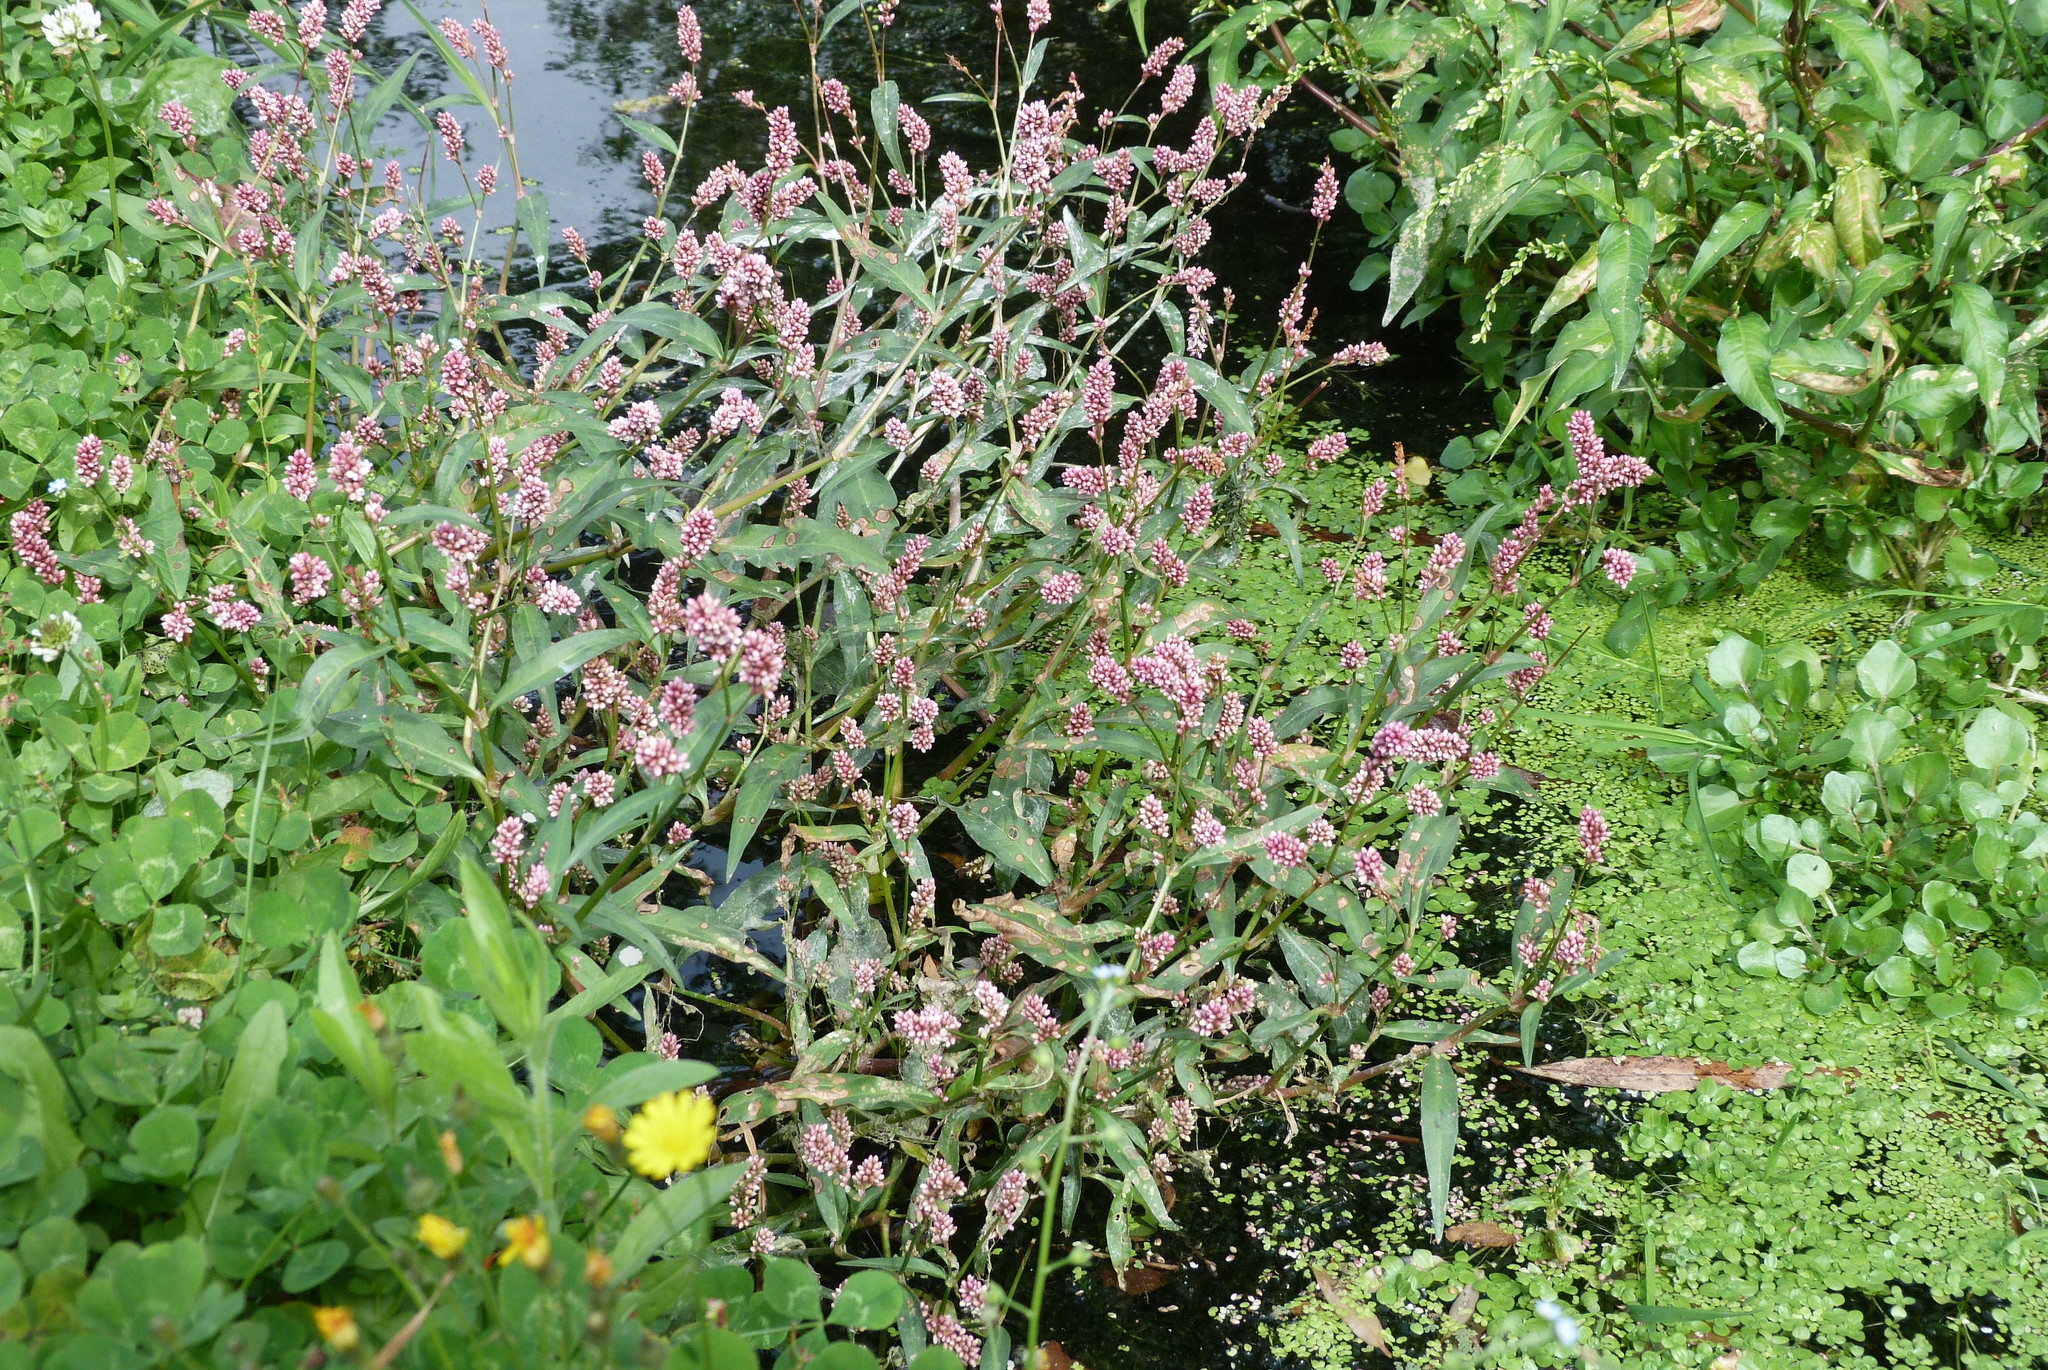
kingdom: Plantae
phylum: Tracheophyta
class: Magnoliopsida
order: Caryophyllales
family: Polygonaceae
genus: Persicaria
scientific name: Persicaria maculosa
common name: Redshank
